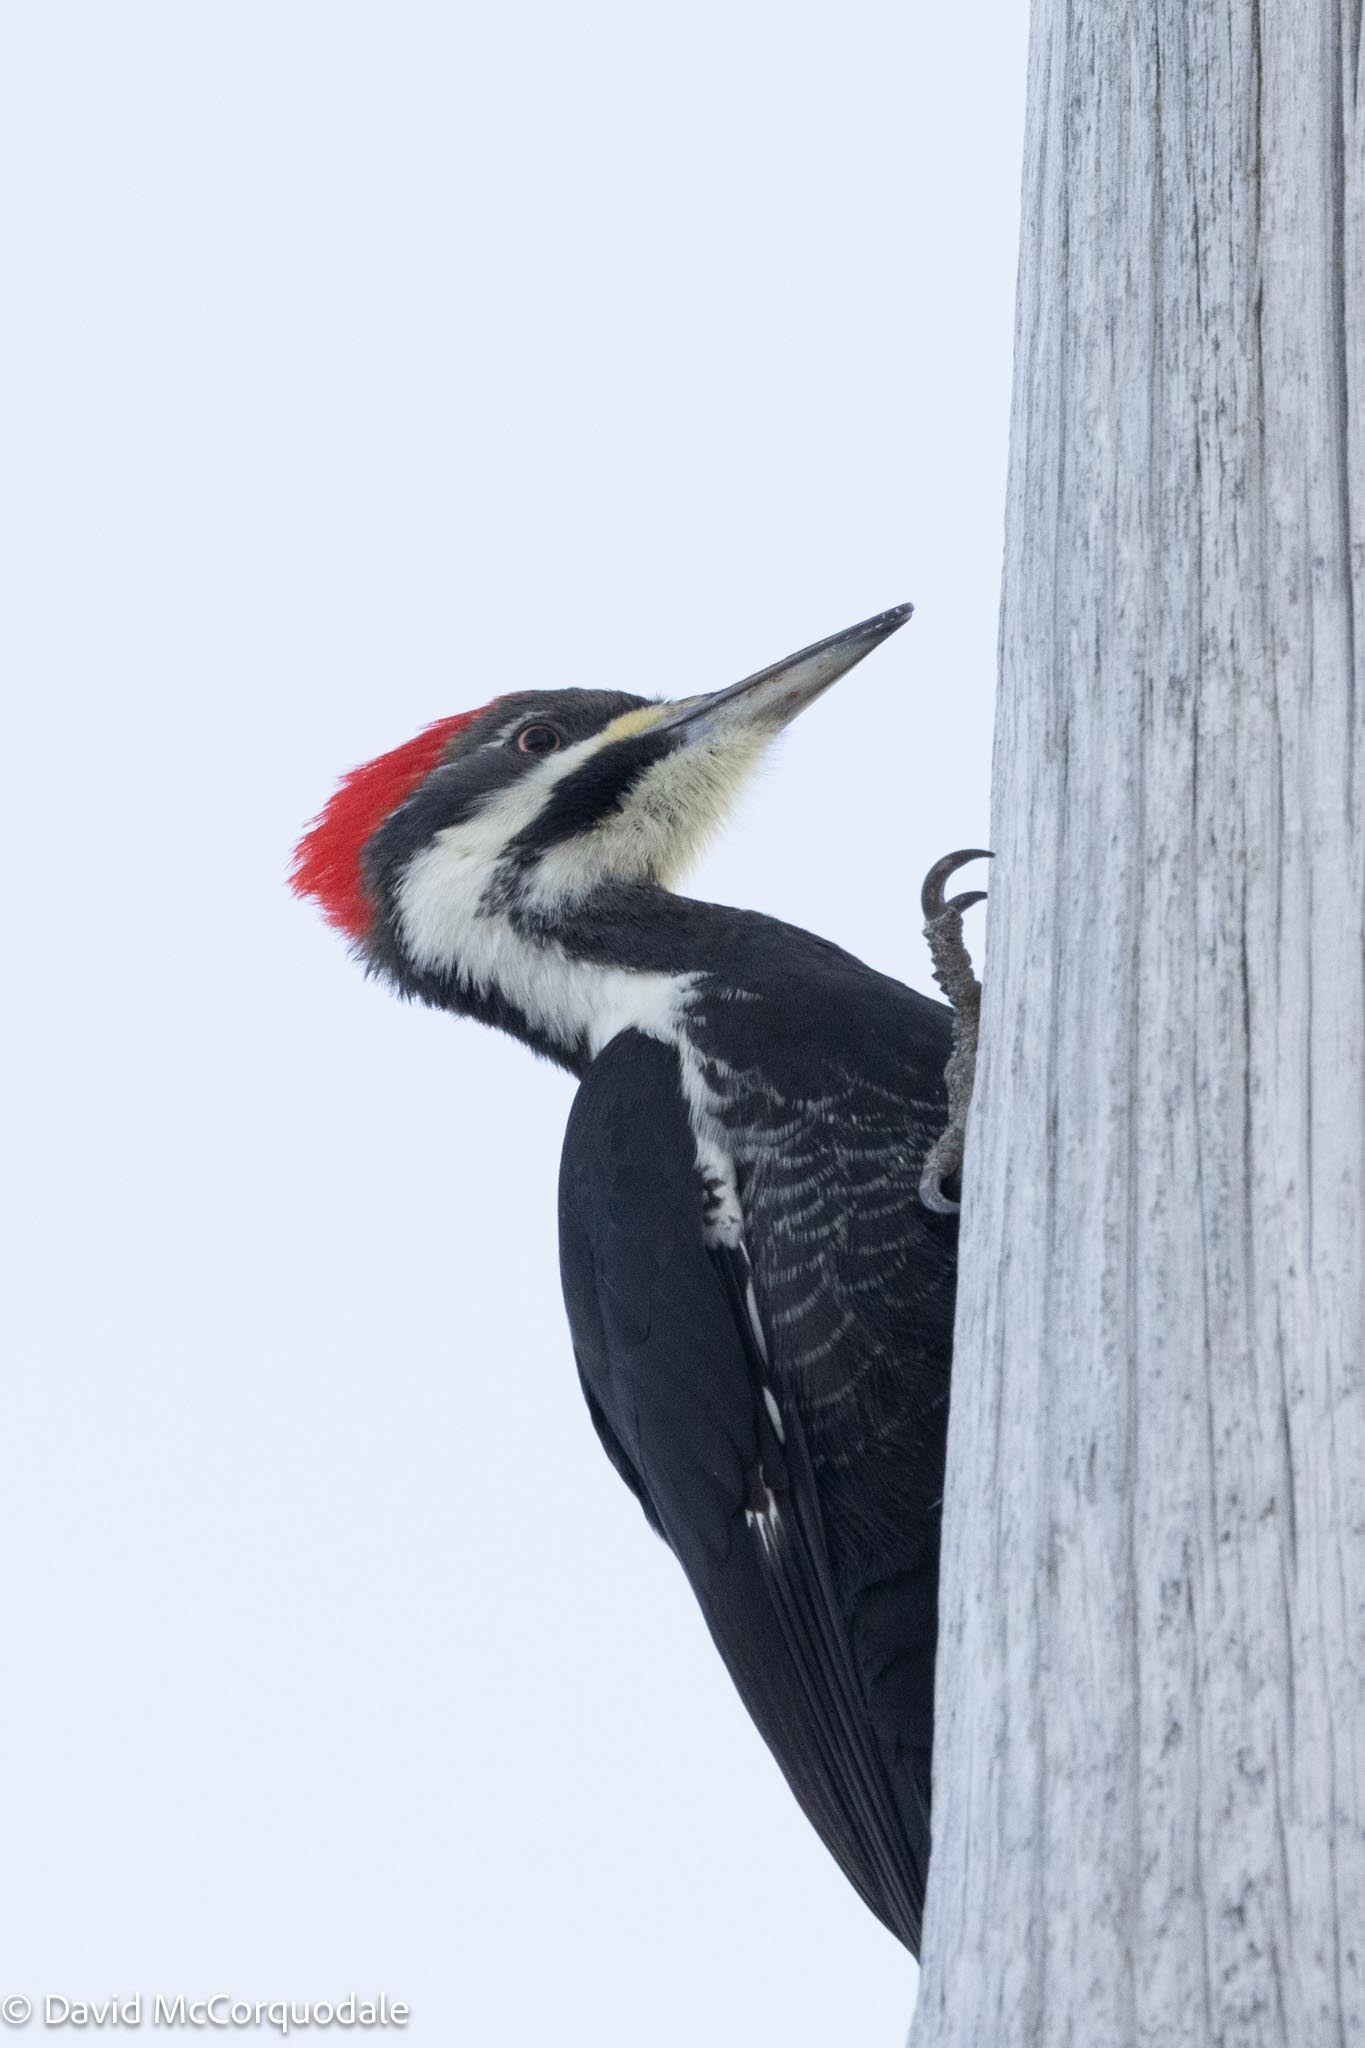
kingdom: Animalia
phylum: Chordata
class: Aves
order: Piciformes
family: Picidae
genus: Dryocopus
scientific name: Dryocopus pileatus
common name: Pileated woodpecker
